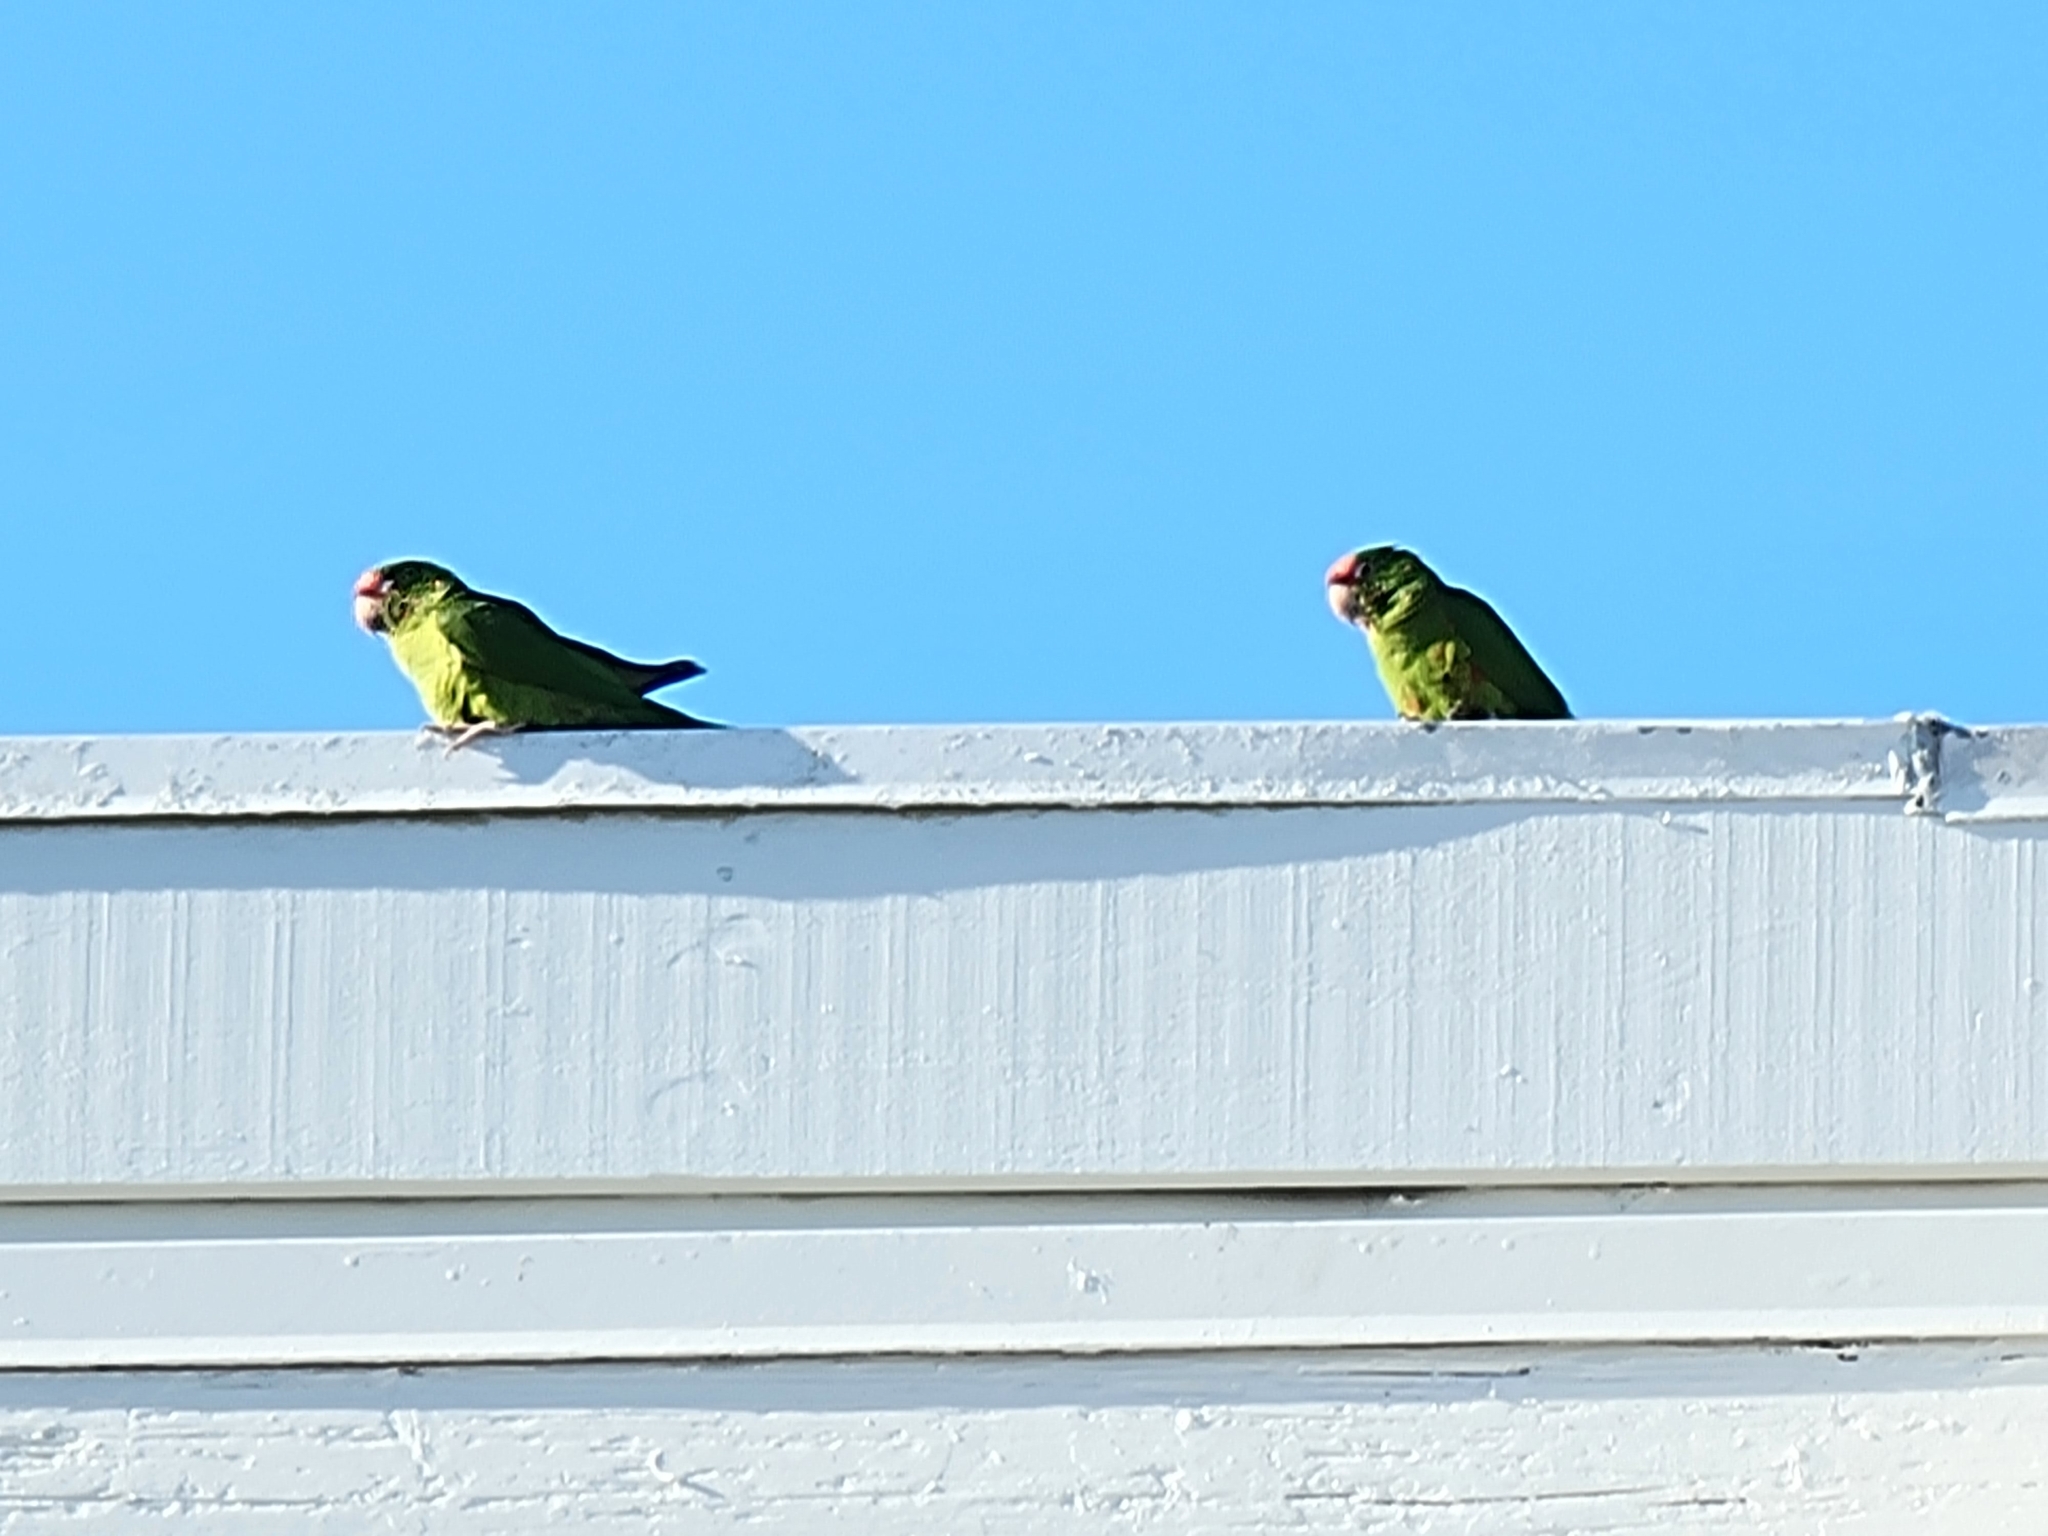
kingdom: Animalia
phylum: Chordata
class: Aves
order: Psittaciformes
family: Psittacidae
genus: Aratinga
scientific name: Aratinga mitrata
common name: Mitred parakeet
